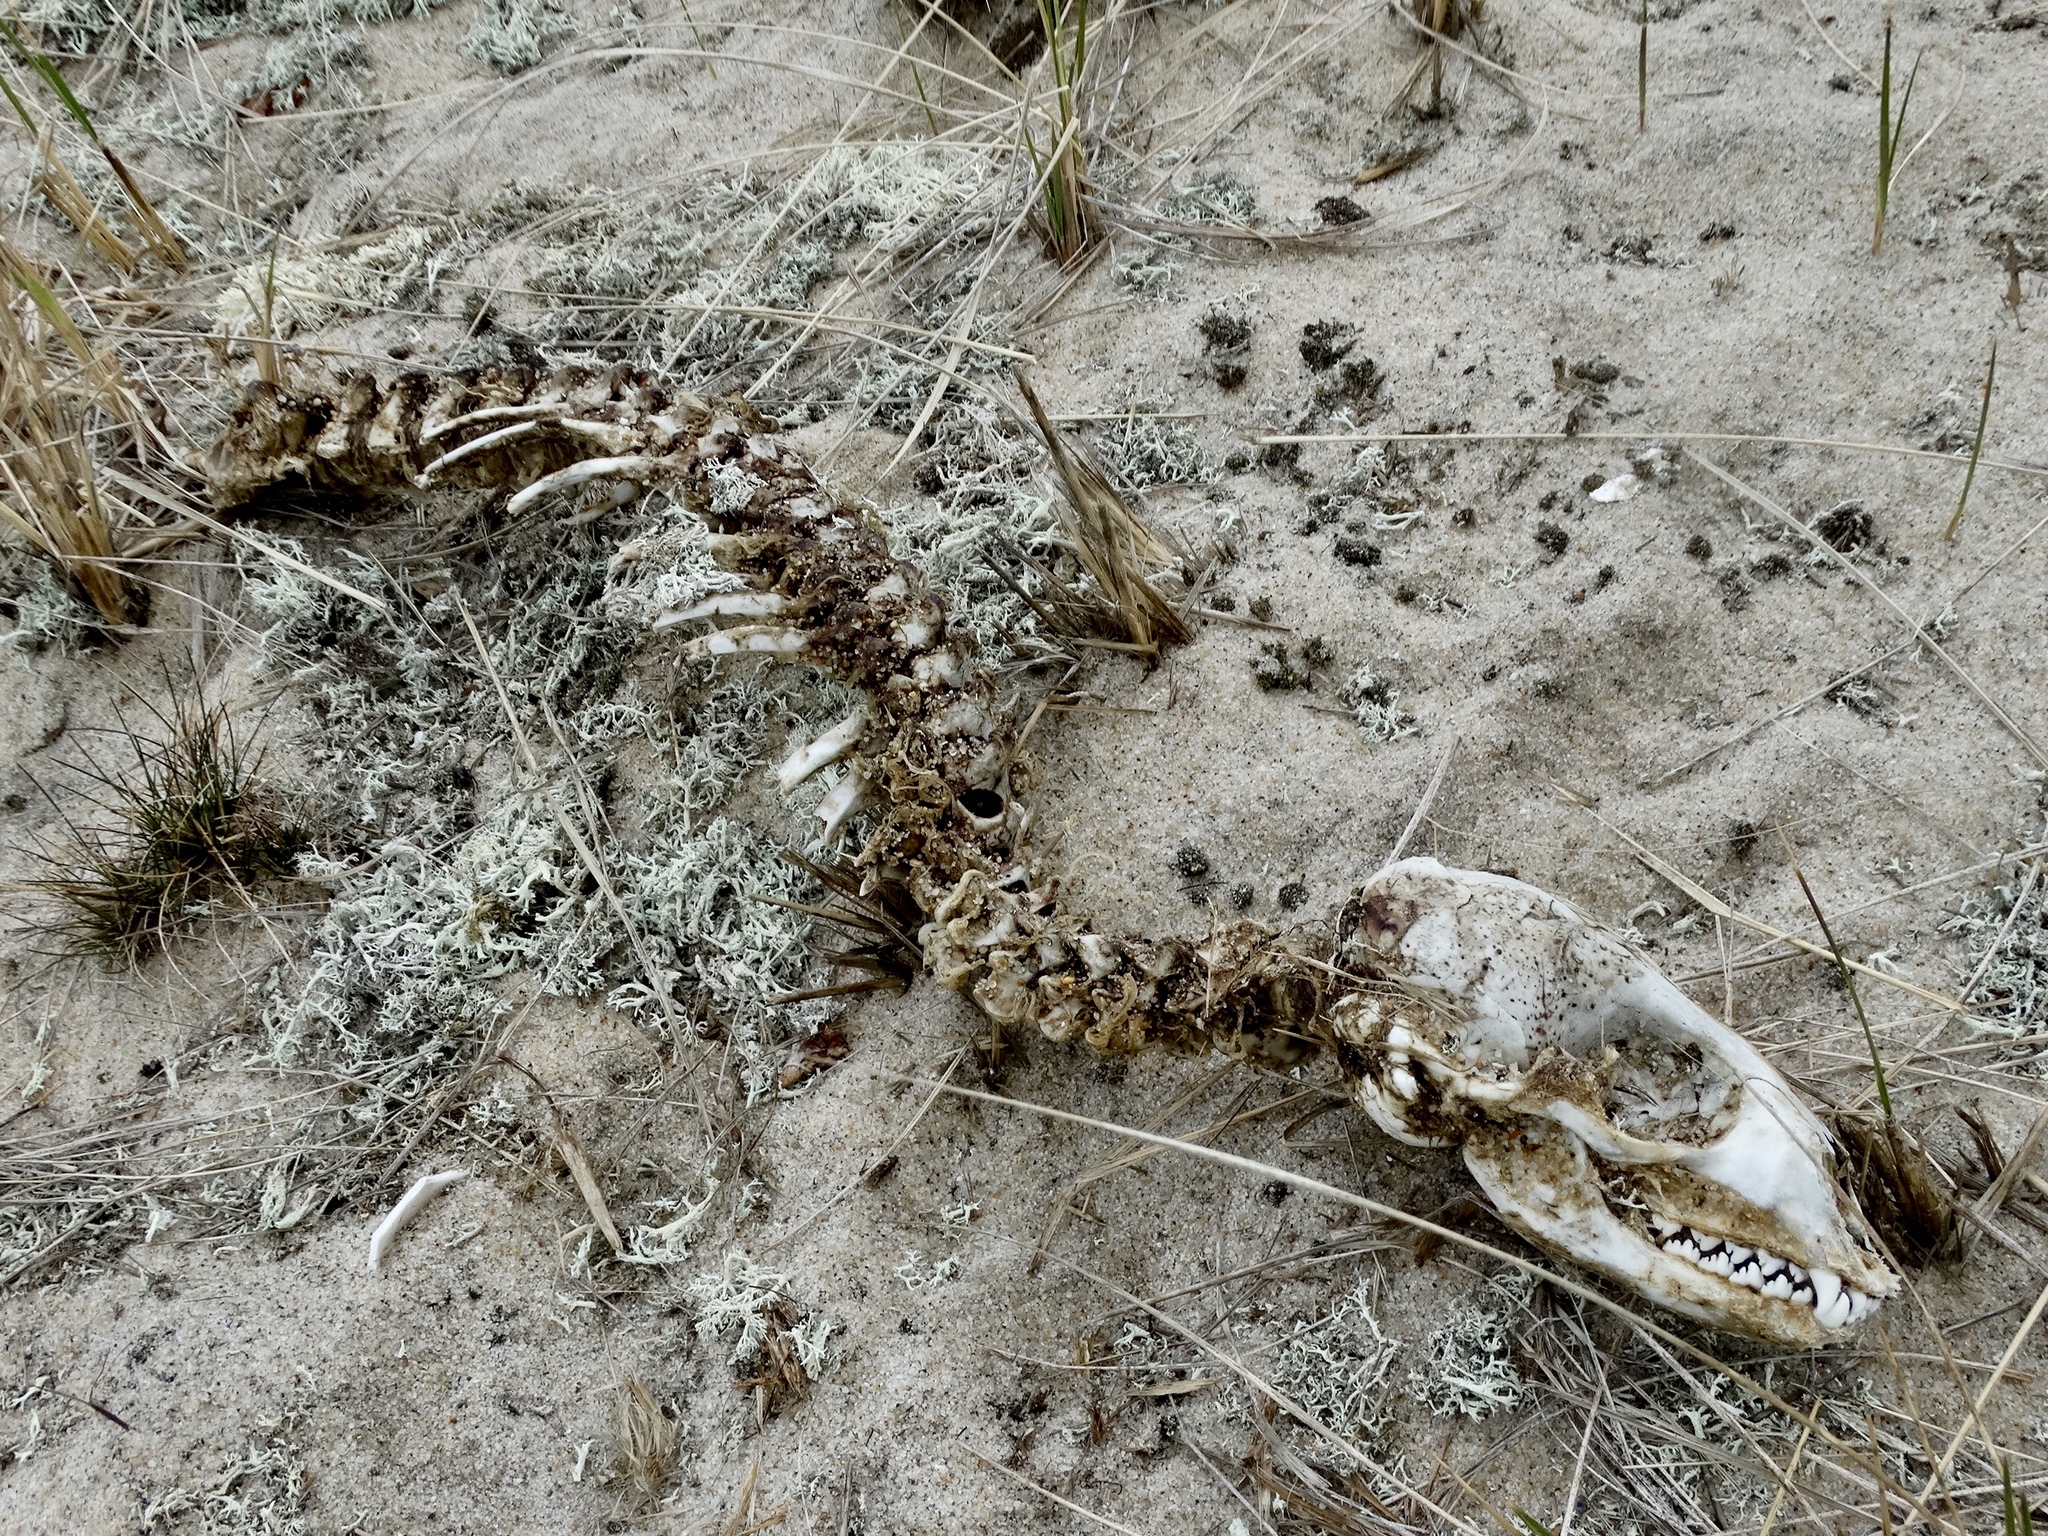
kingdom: Animalia
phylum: Chordata
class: Mammalia
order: Carnivora
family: Phocidae
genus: Phoca
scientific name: Phoca vitulina
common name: Harbor seal
